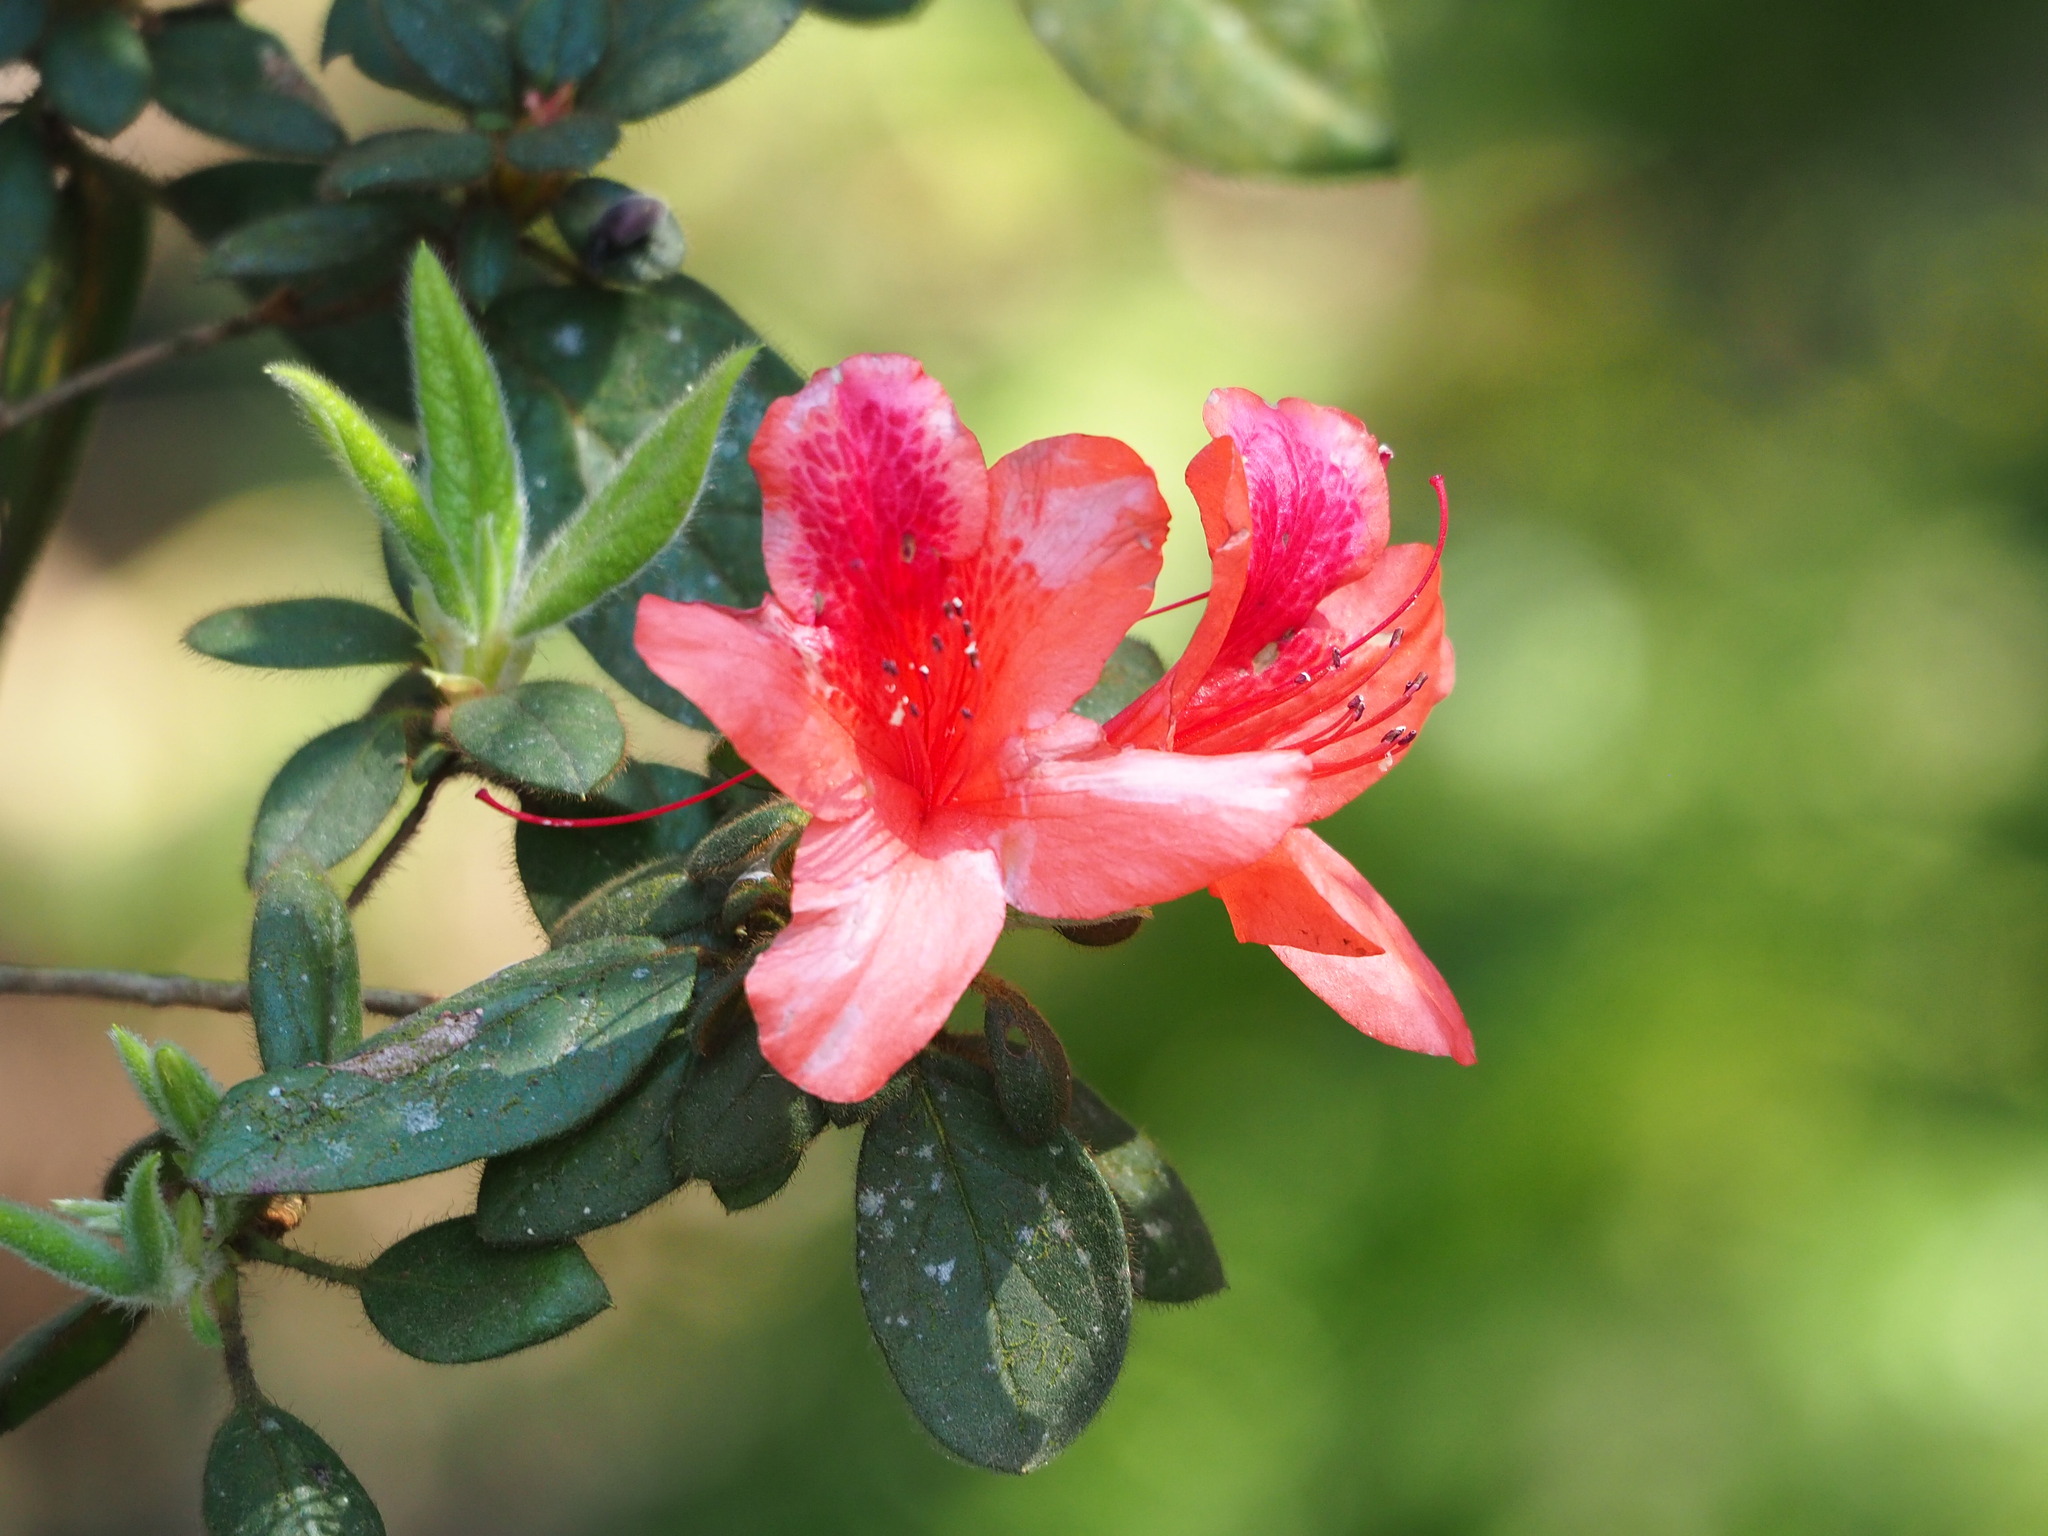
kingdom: Plantae
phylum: Tracheophyta
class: Magnoliopsida
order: Ericales
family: Ericaceae
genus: Rhododendron
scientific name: Rhododendron oldhamii
